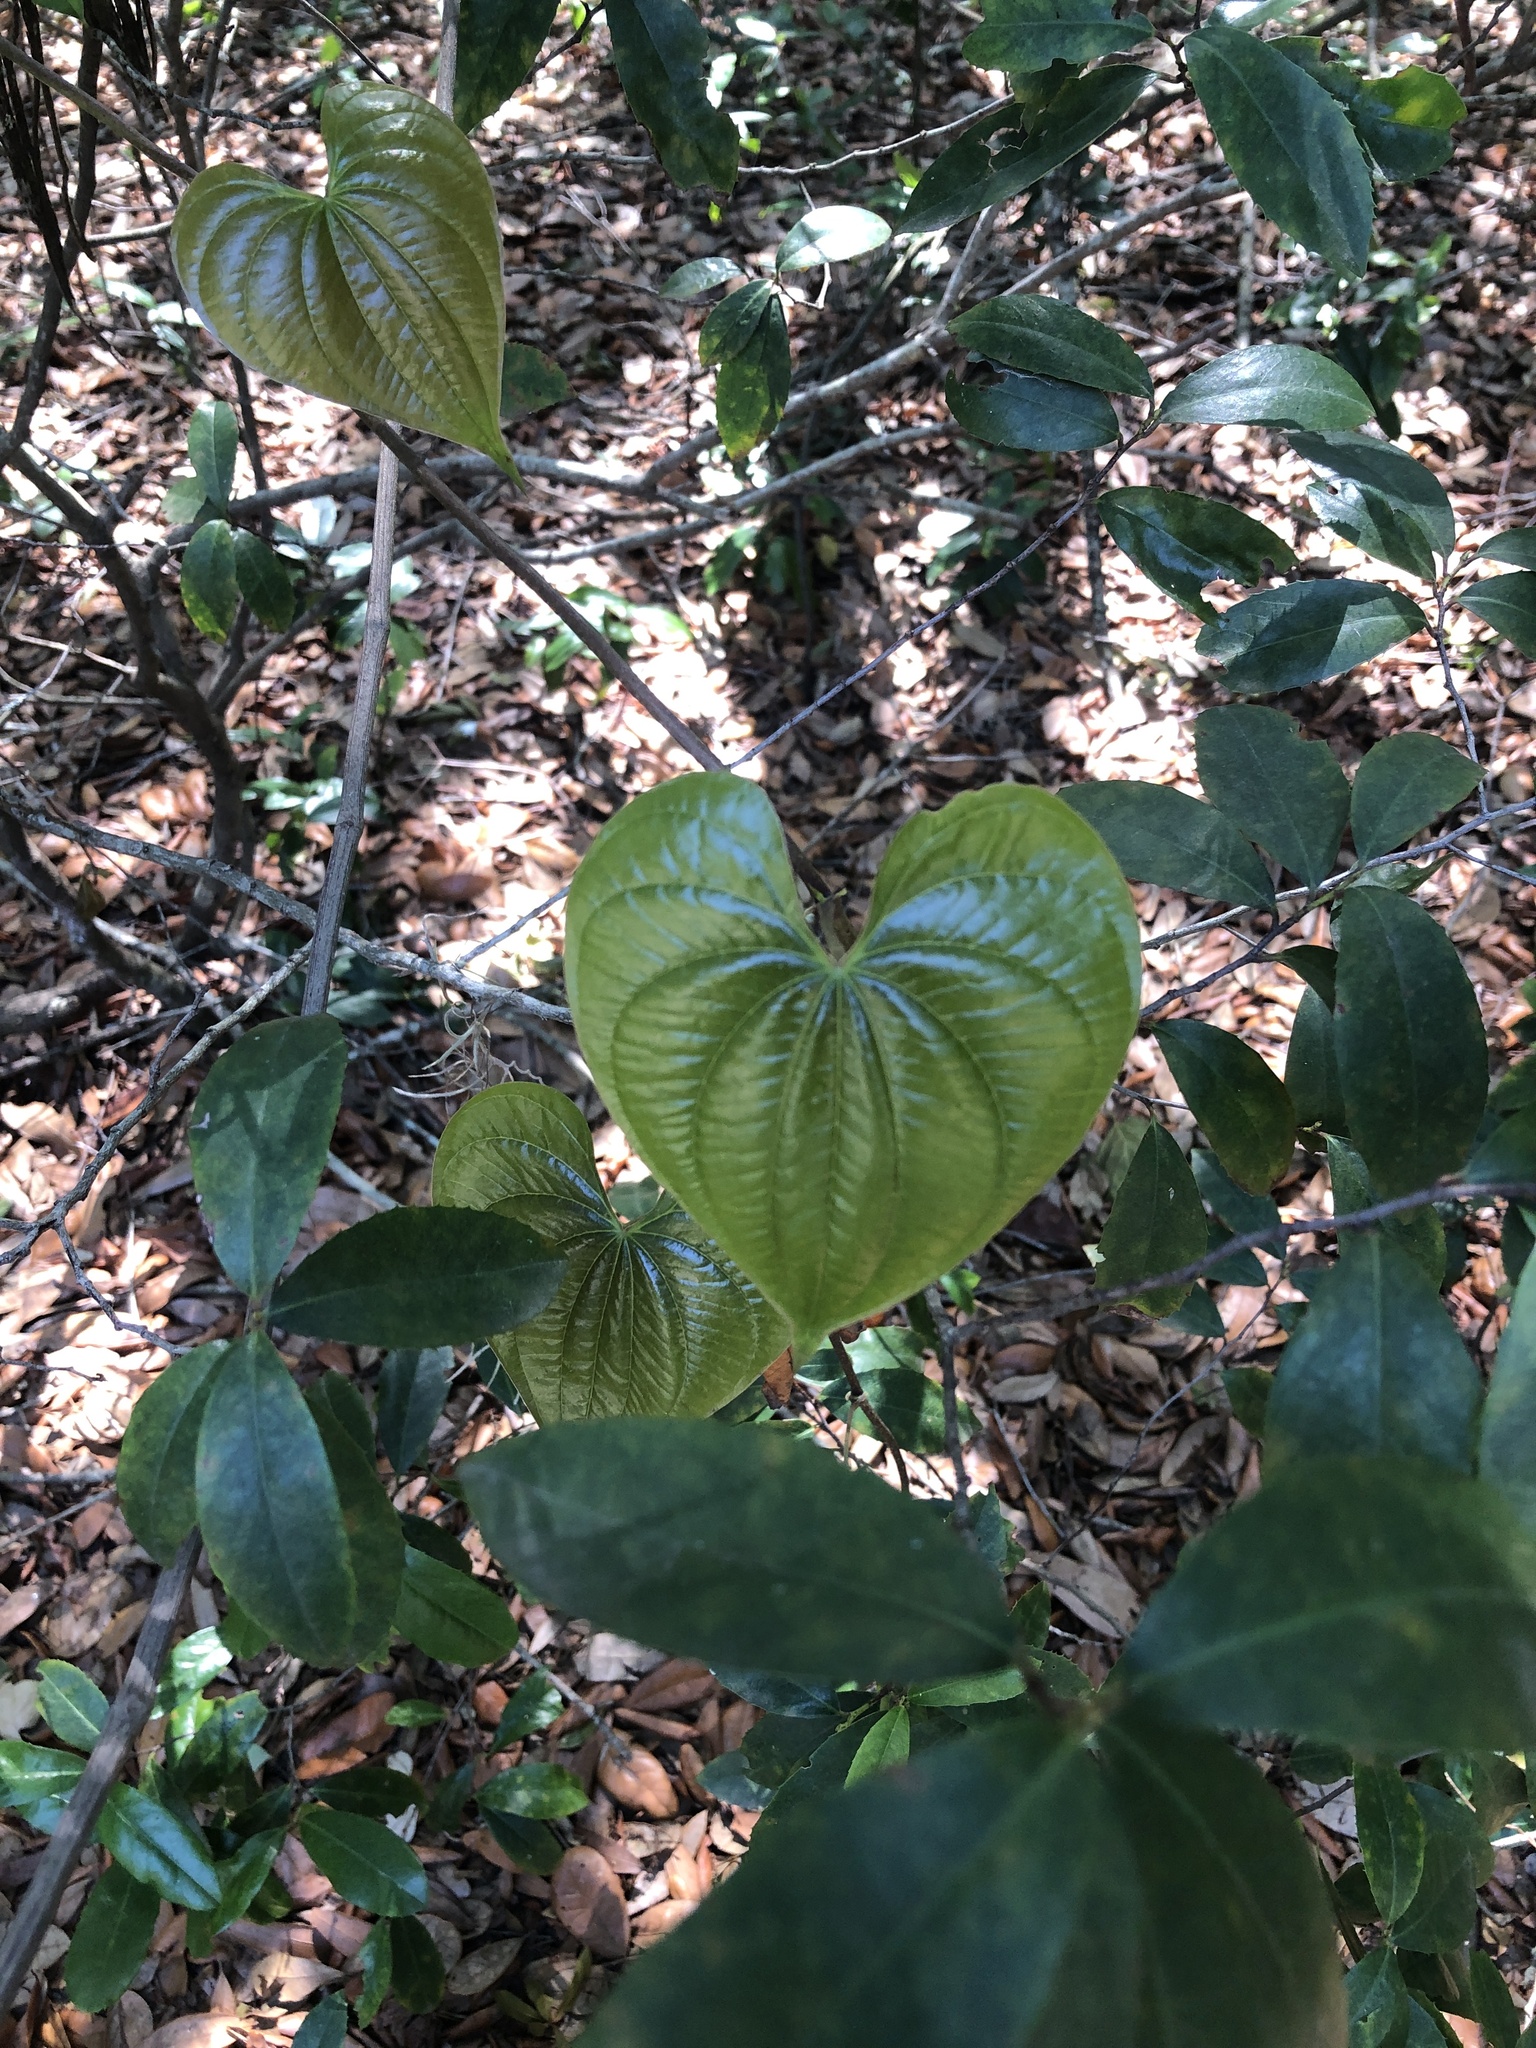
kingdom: Plantae
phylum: Tracheophyta
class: Liliopsida
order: Dioscoreales
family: Dioscoreaceae
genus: Dioscorea
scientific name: Dioscorea bulbifera
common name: Air yam
